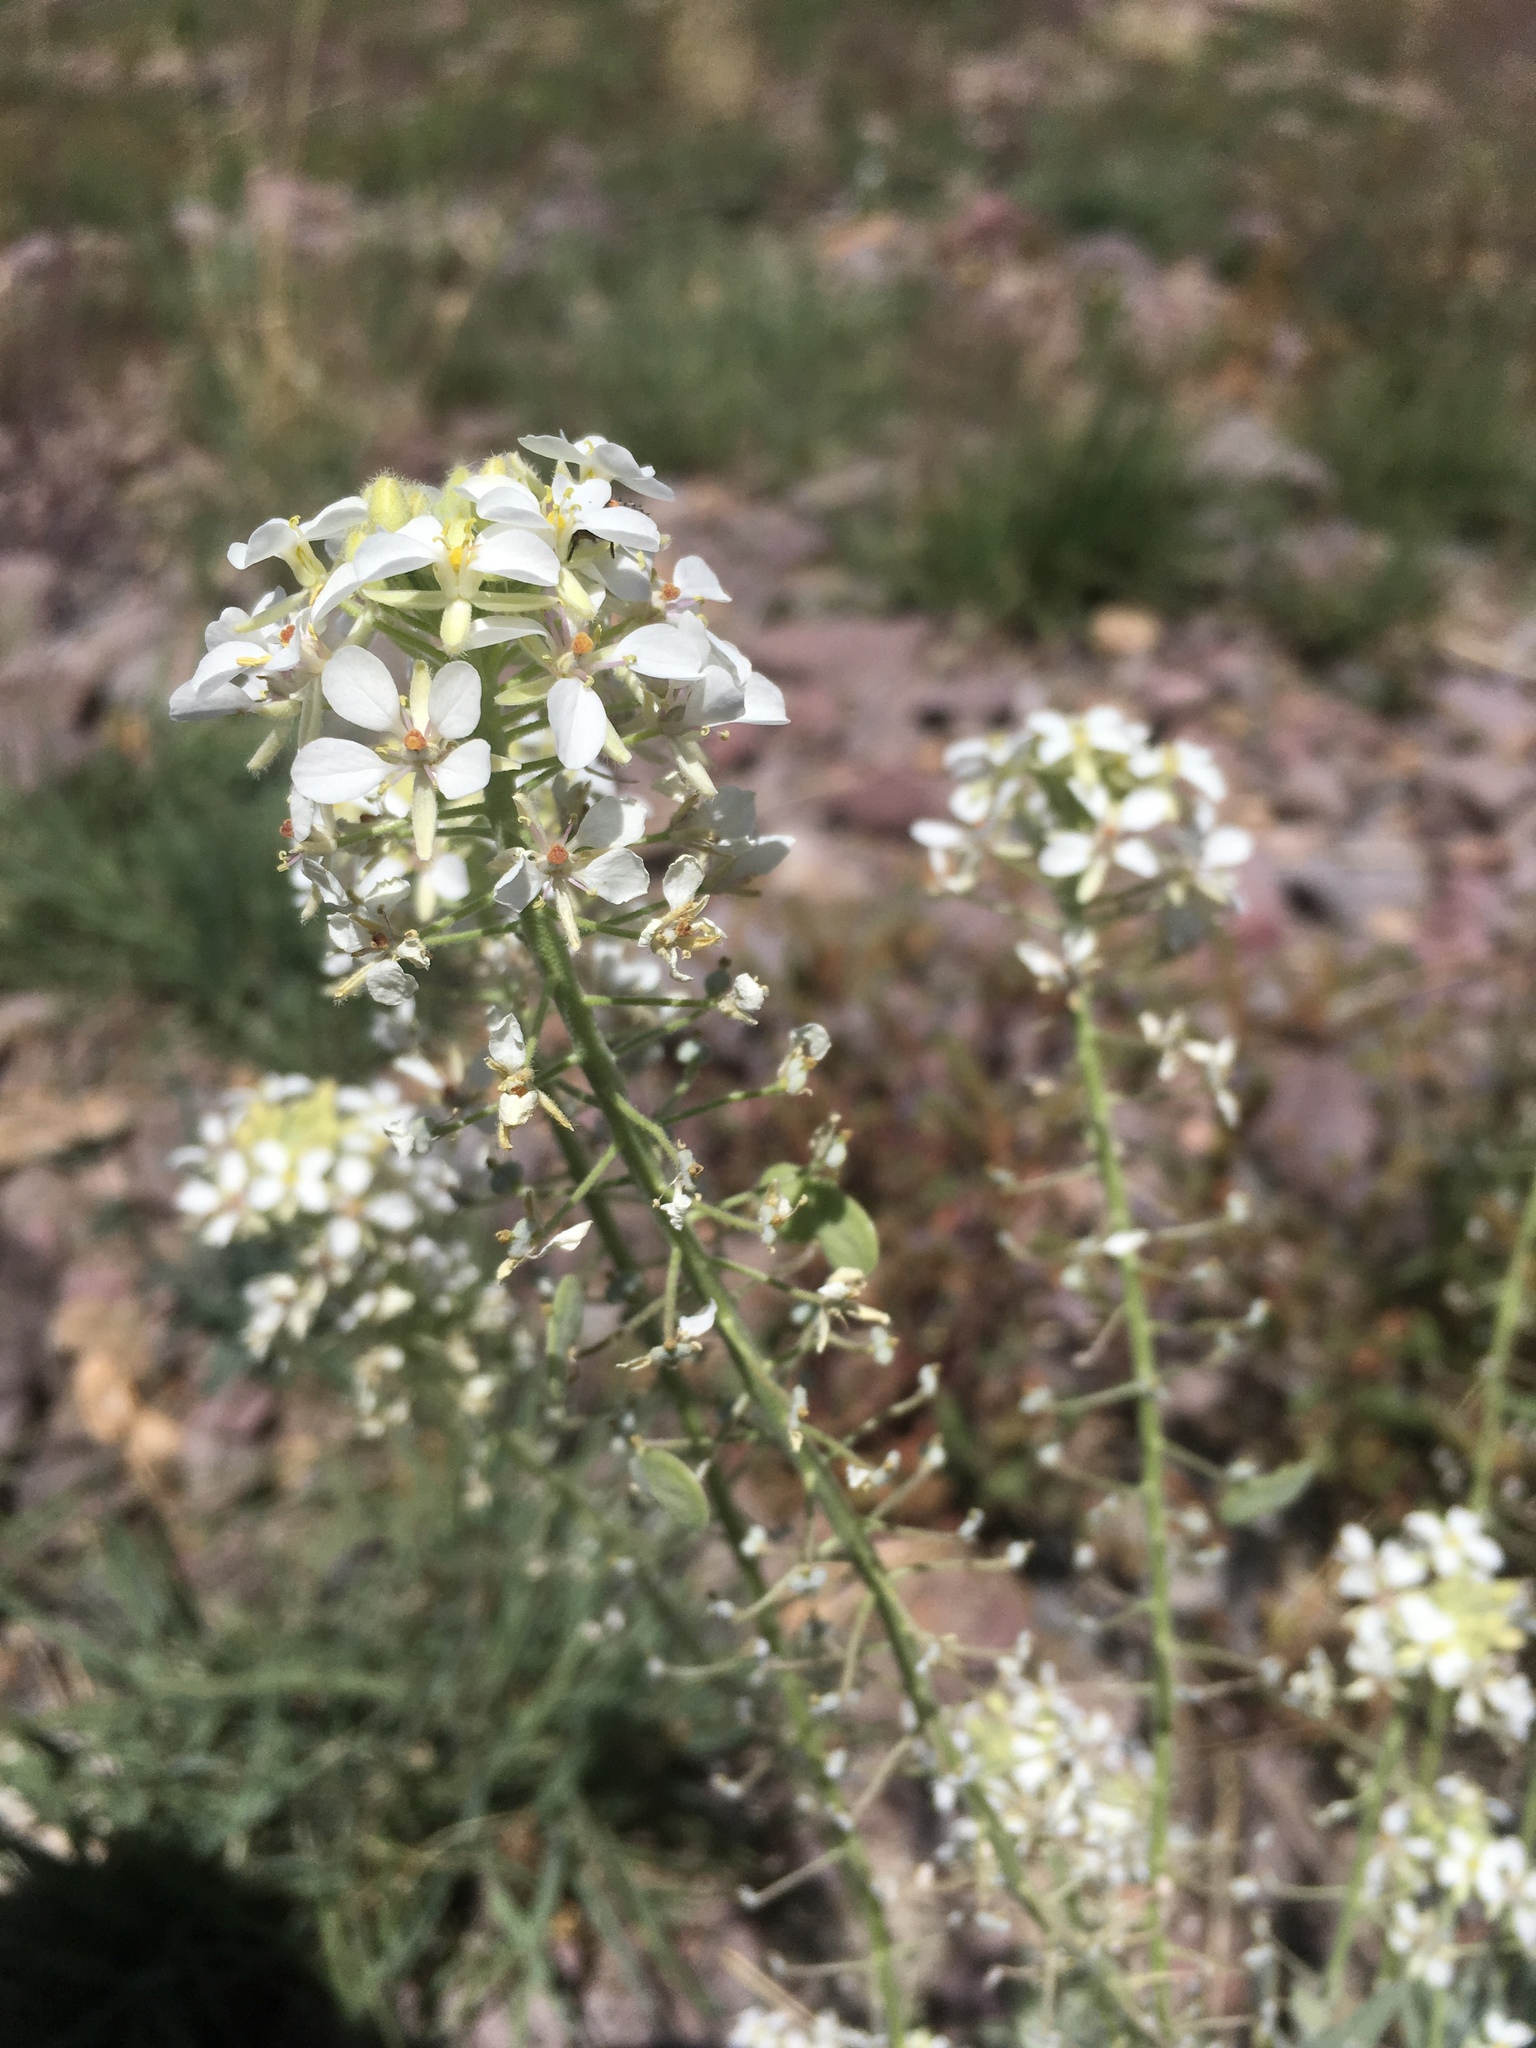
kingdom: Plantae
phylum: Tracheophyta
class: Magnoliopsida
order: Brassicales
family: Brassicaceae
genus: Dimorphocarpa
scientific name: Dimorphocarpa wislizenii
